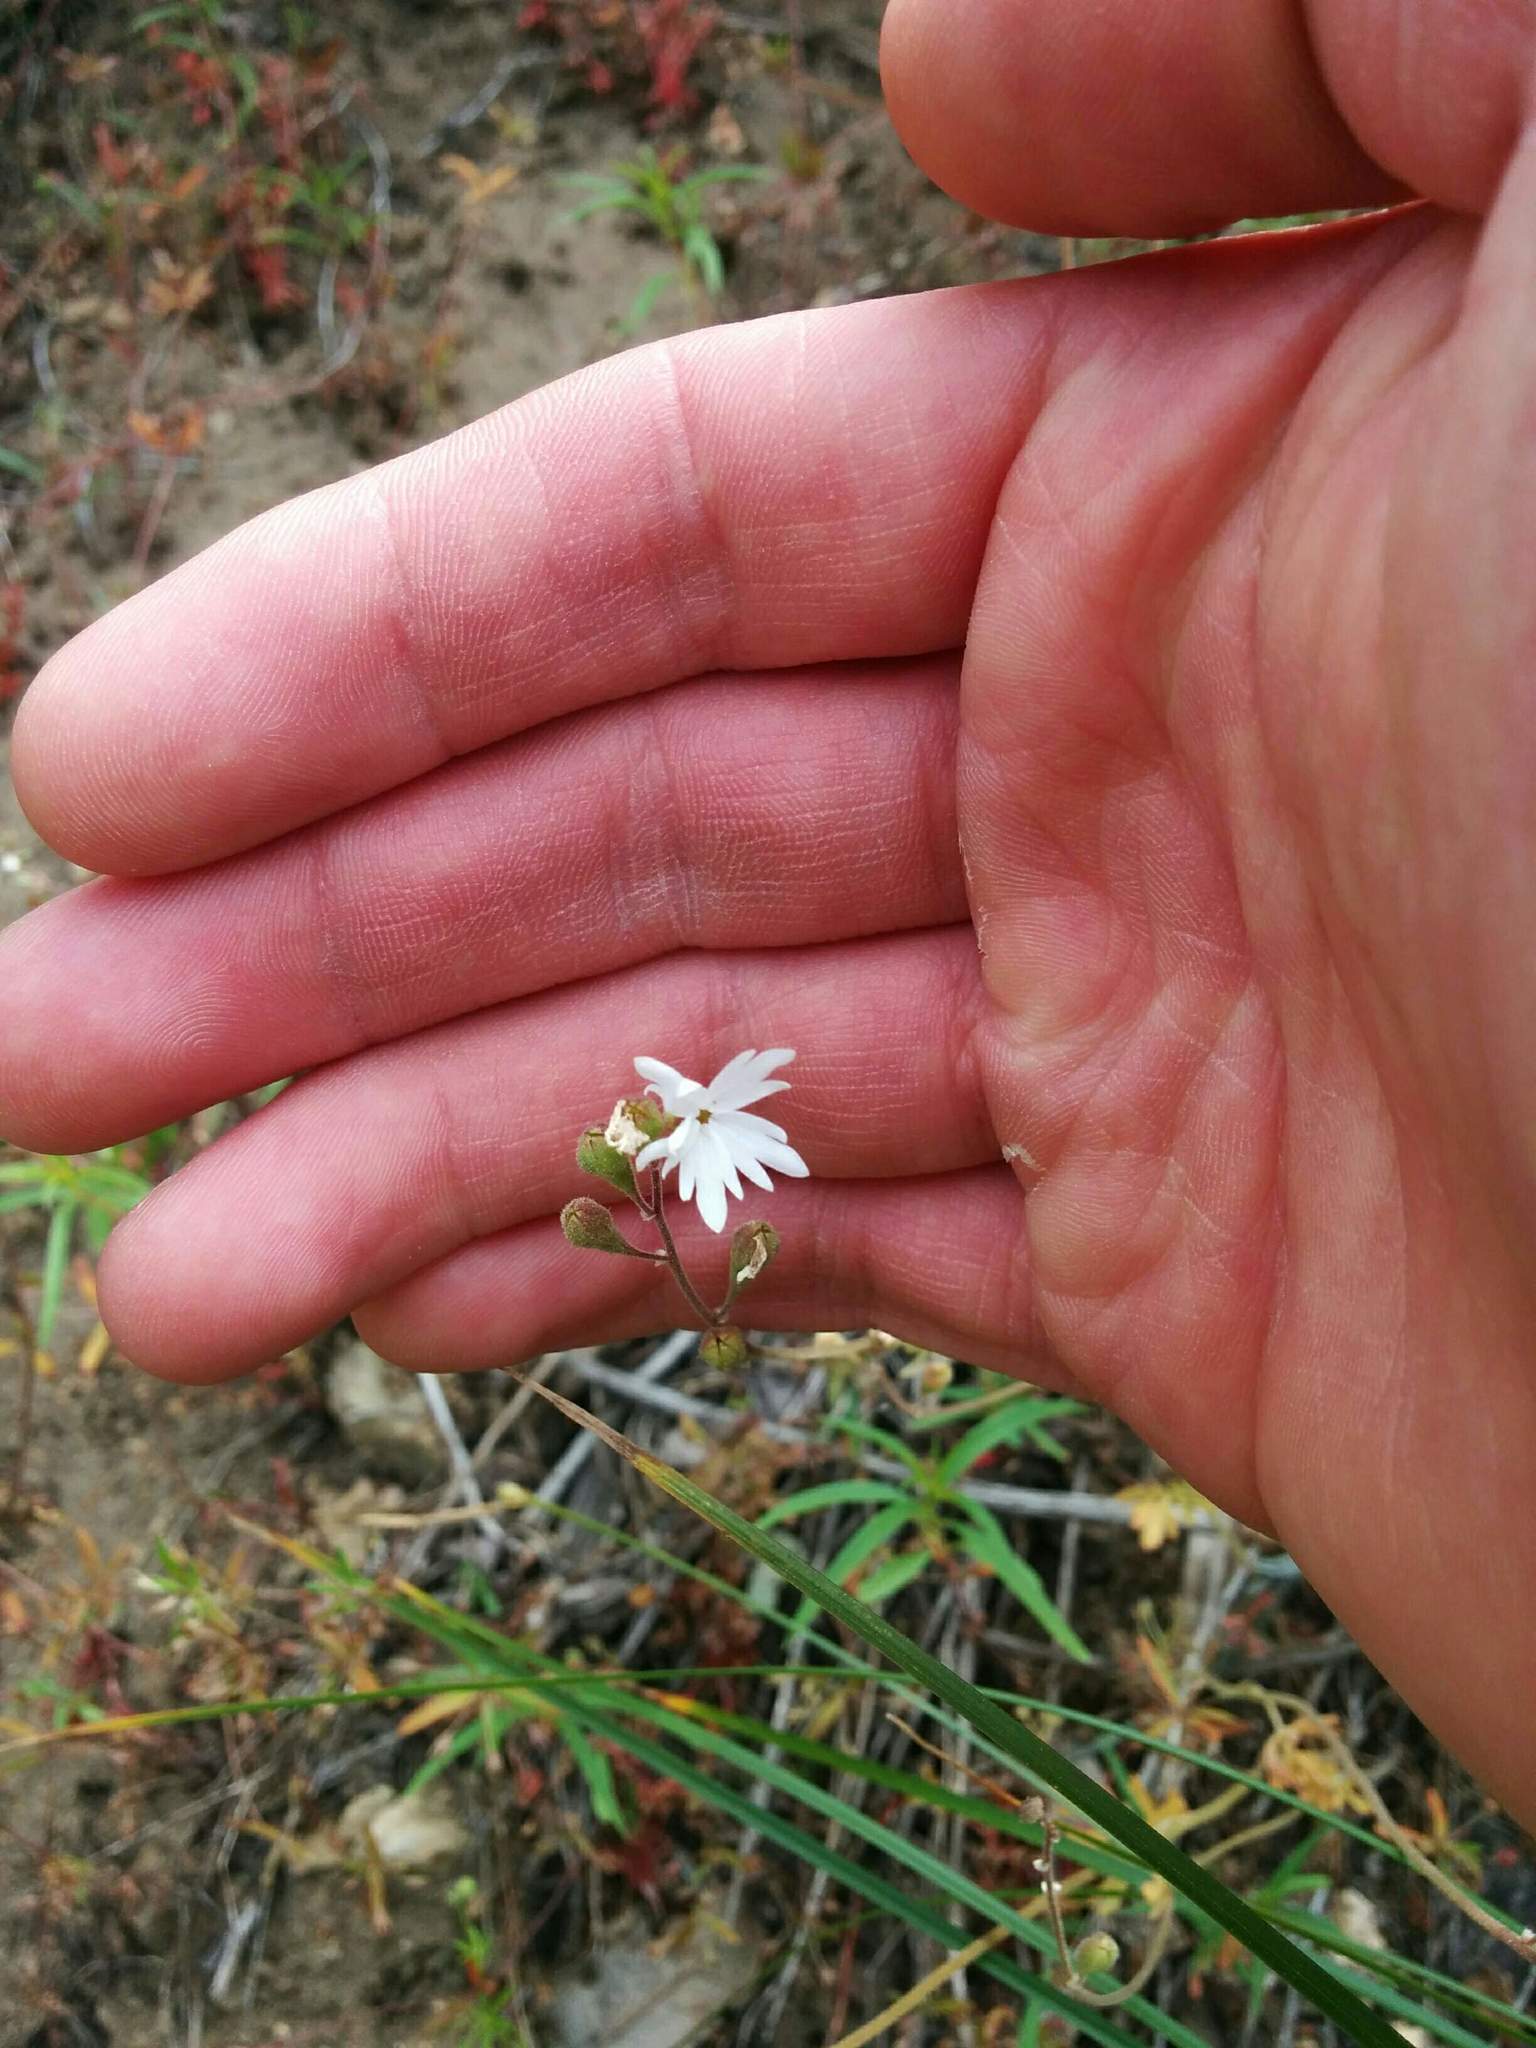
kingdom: Plantae
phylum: Tracheophyta
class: Magnoliopsida
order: Saxifragales
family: Saxifragaceae
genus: Lithophragma
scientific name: Lithophragma parviflorum
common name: Small-flowered fringe-cup
